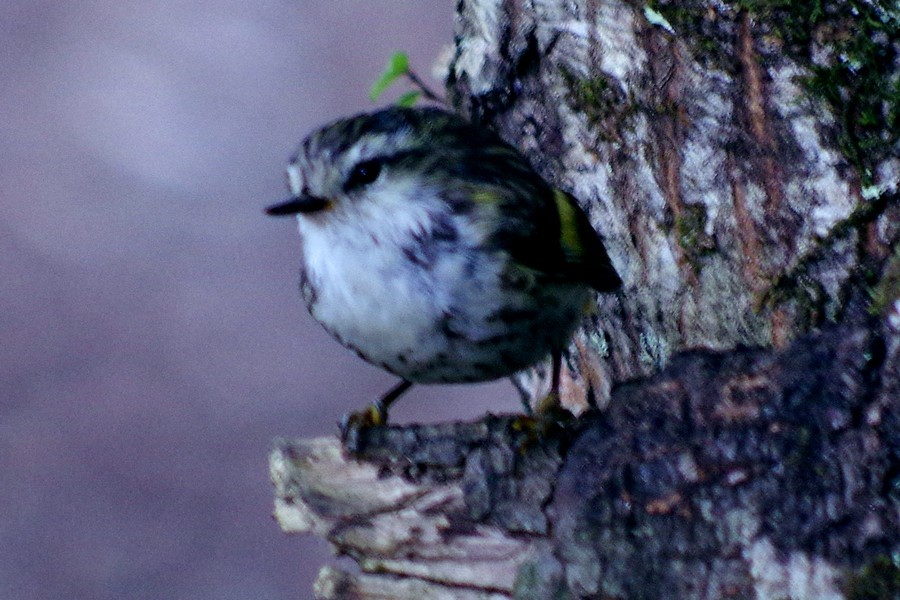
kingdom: Animalia
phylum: Chordata
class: Aves
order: Passeriformes
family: Acanthisittidae
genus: Acanthisitta
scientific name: Acanthisitta chloris
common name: Rifleman
